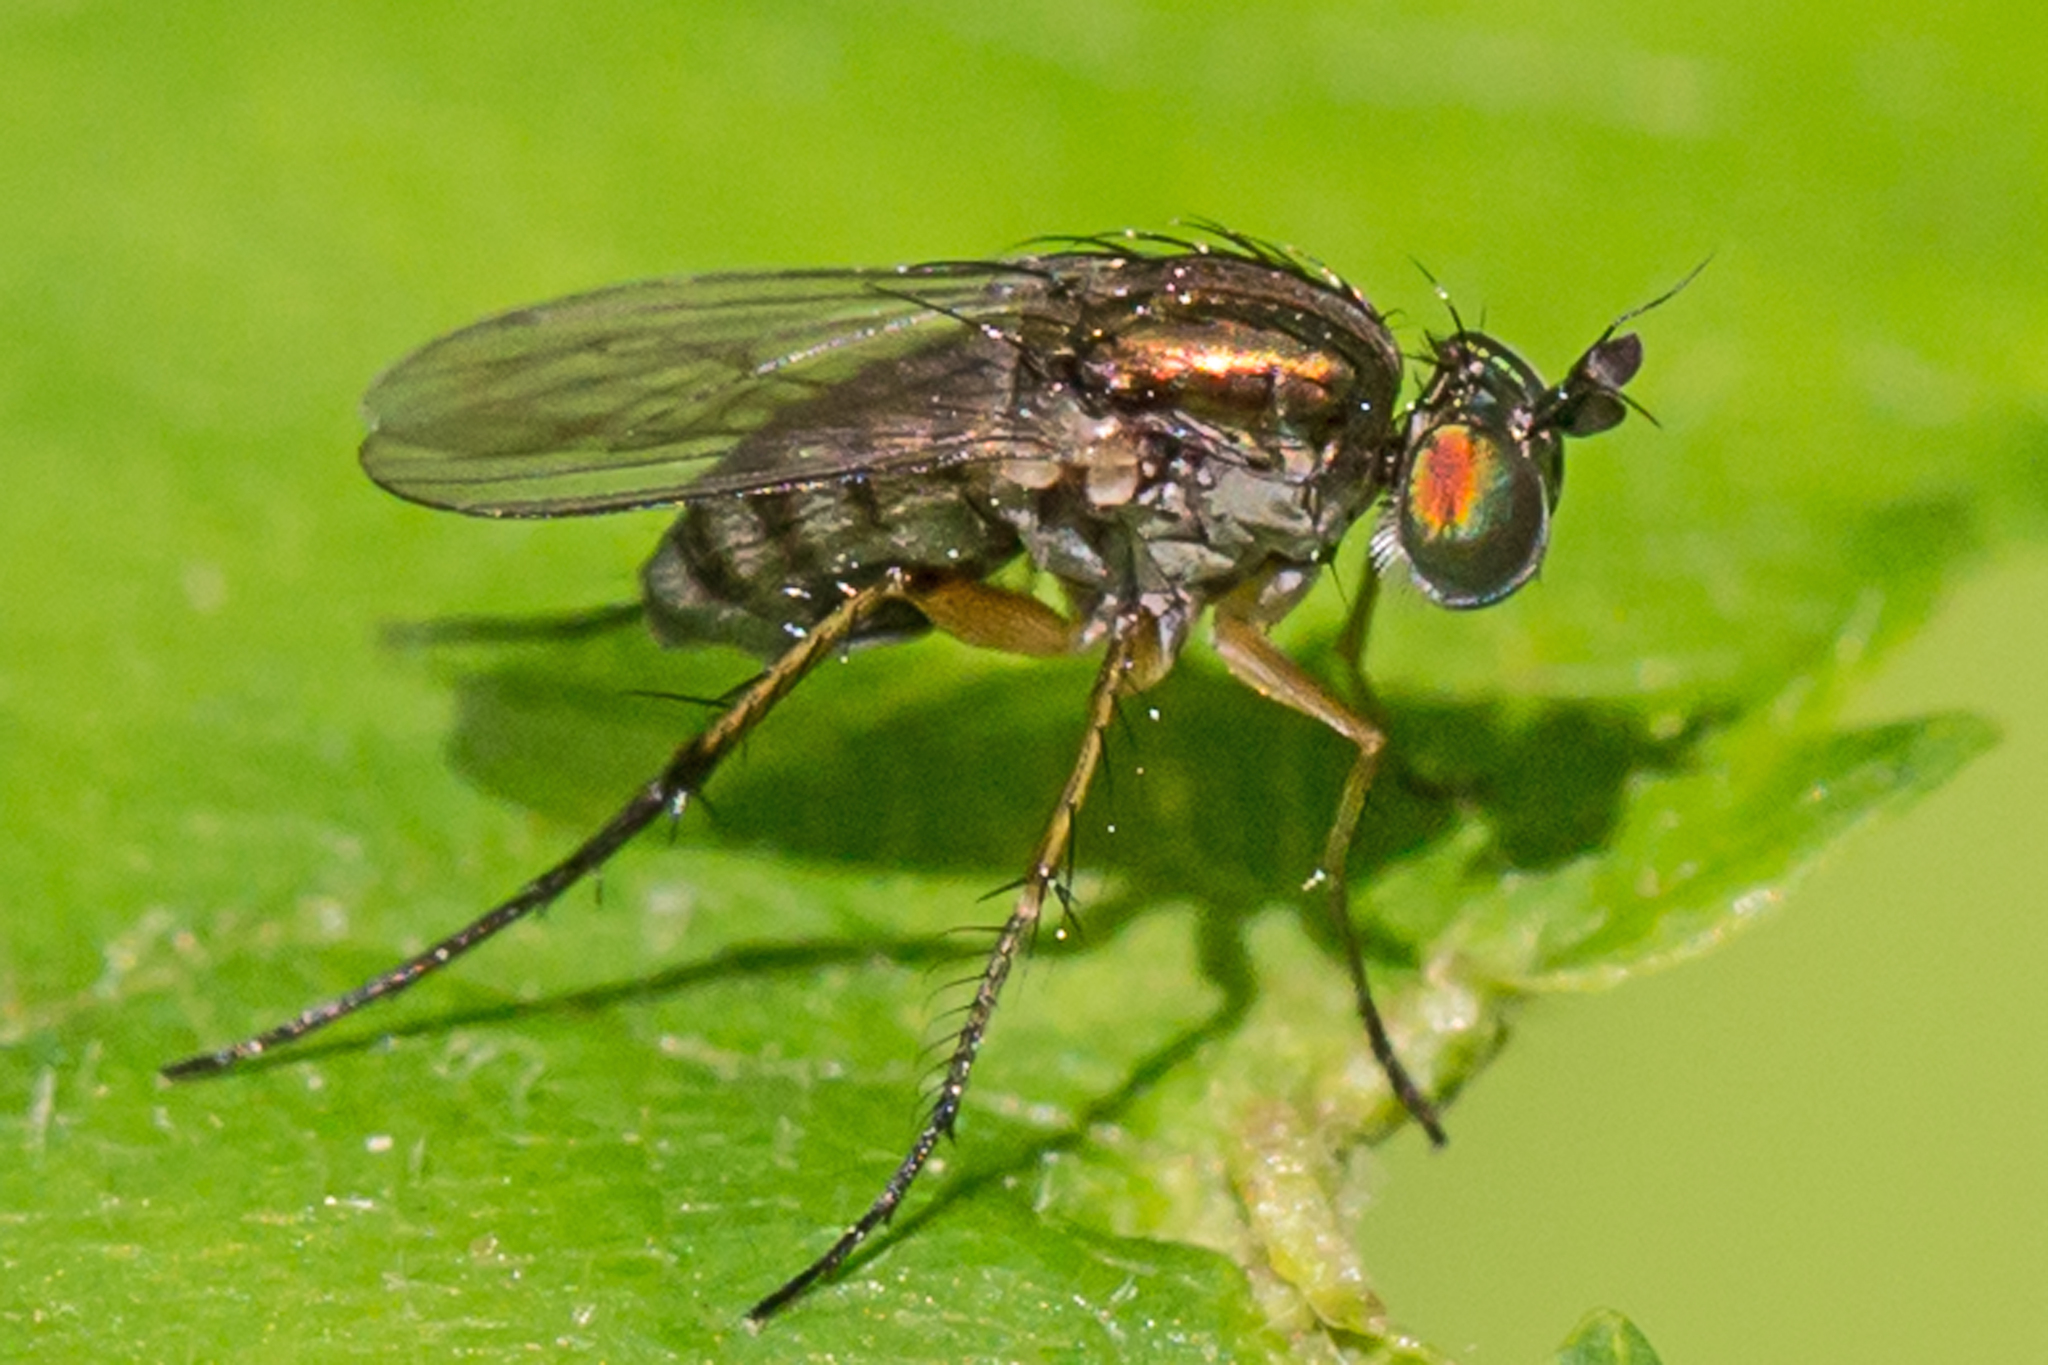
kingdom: Animalia
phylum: Arthropoda
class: Insecta
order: Diptera
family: Dolichopodidae
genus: Dolichopus
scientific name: Dolichopus comatus
